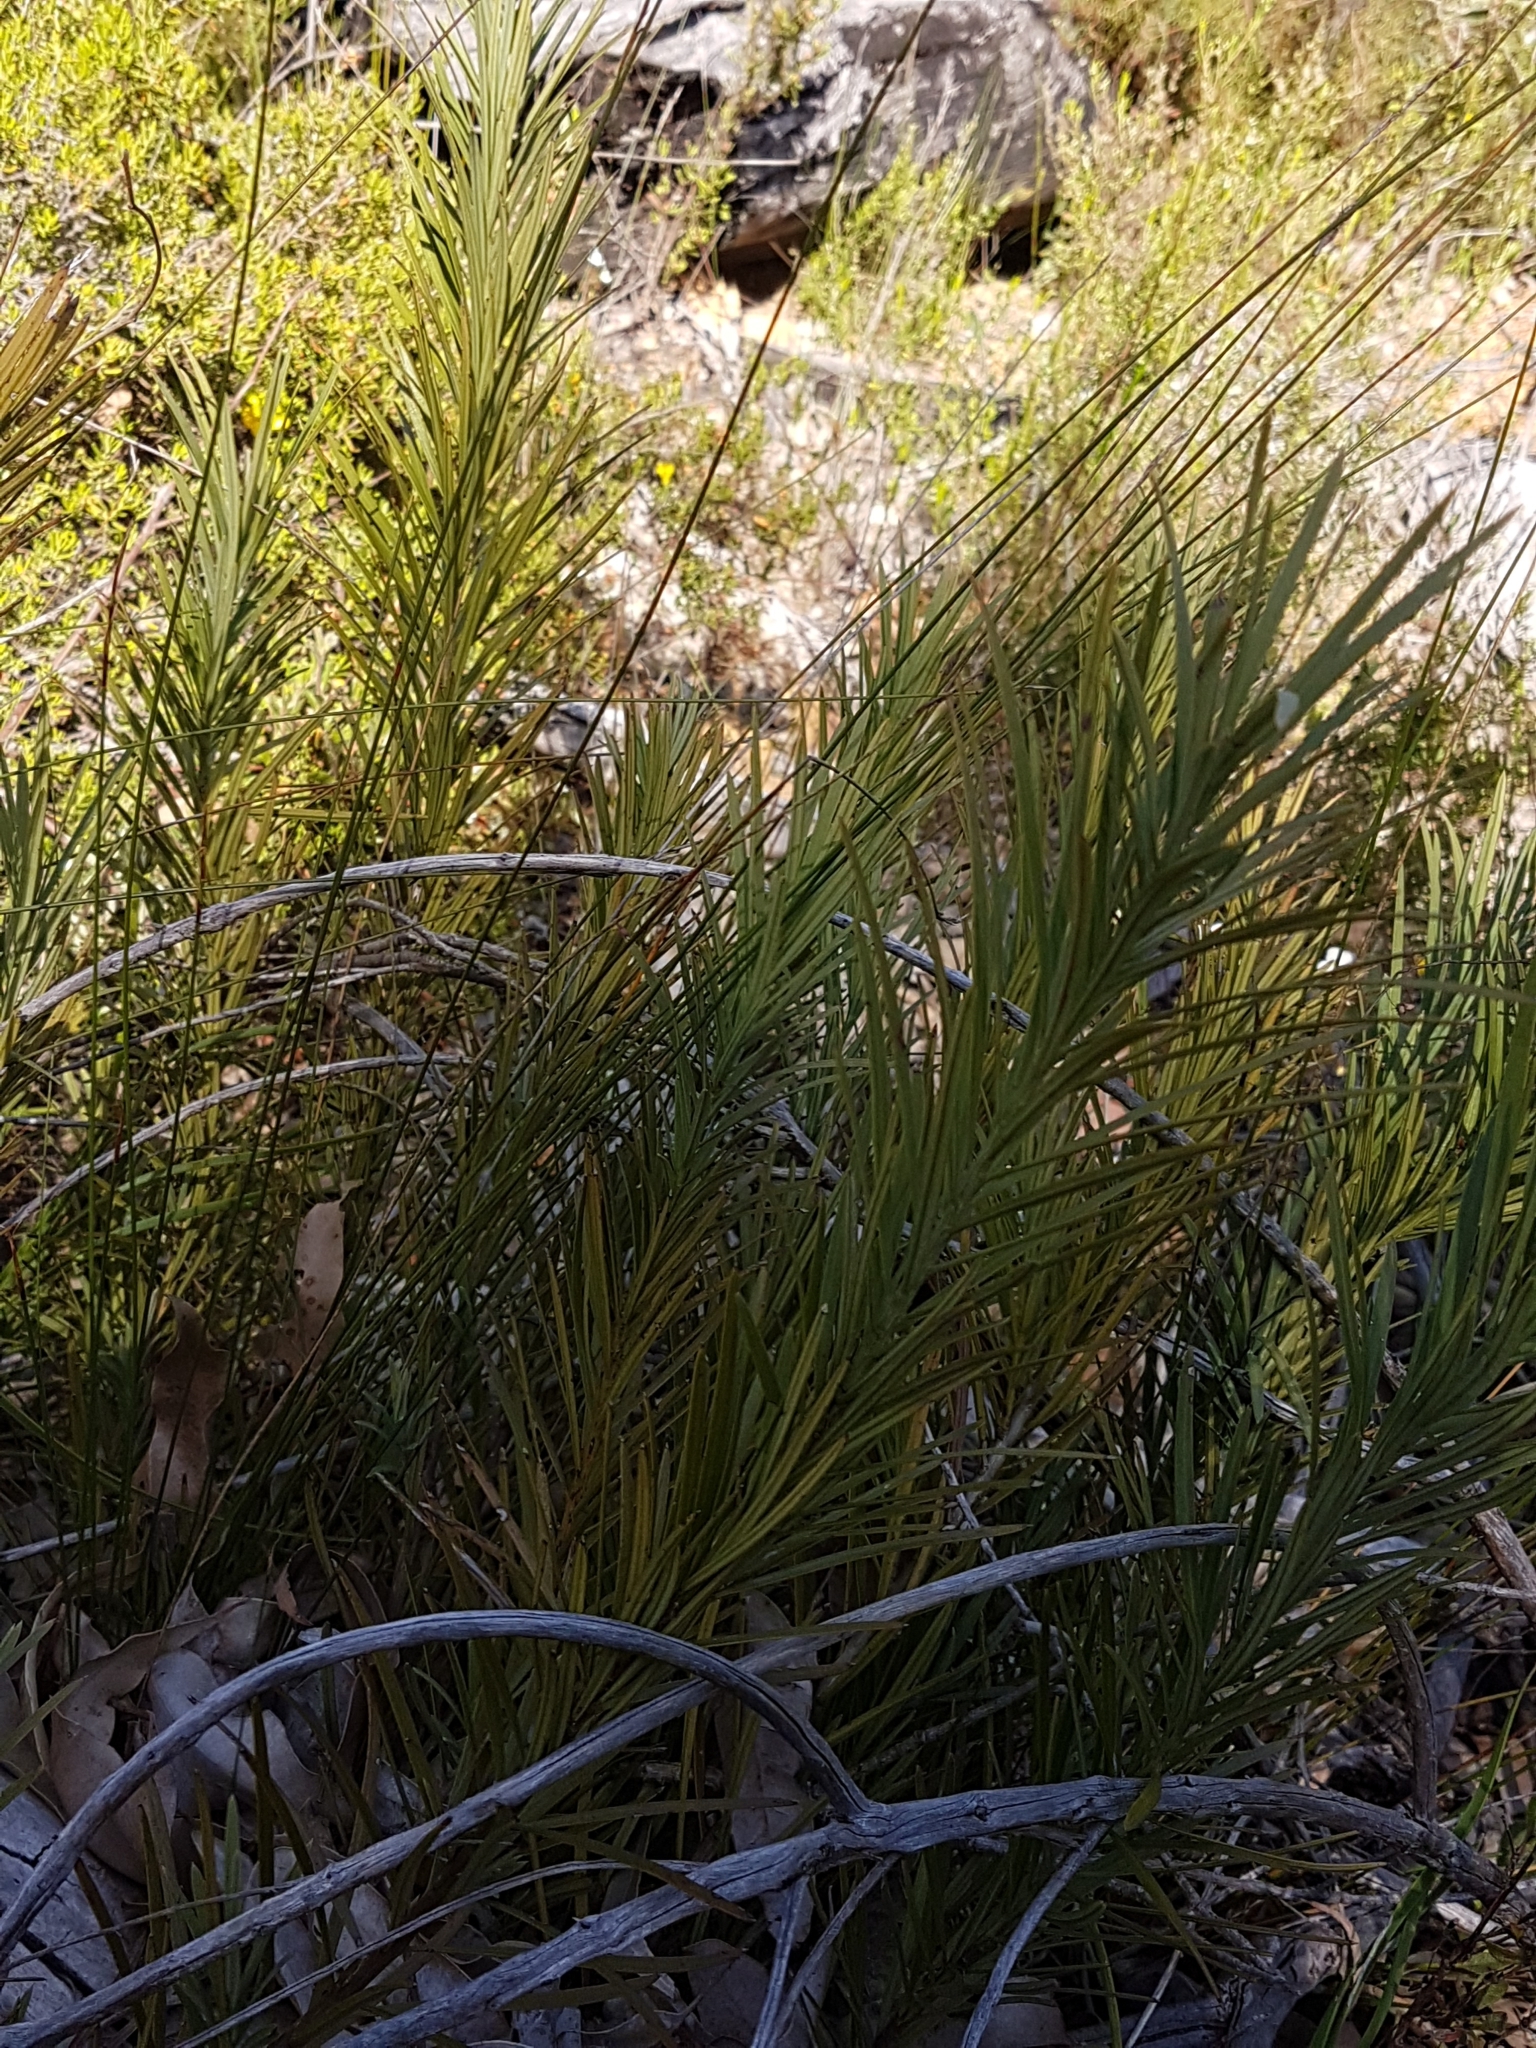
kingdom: Plantae
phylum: Tracheophyta
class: Pinopsida
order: Pinales
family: Podocarpaceae
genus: Podocarpus
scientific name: Podocarpus drouynianus
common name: Emu berry
